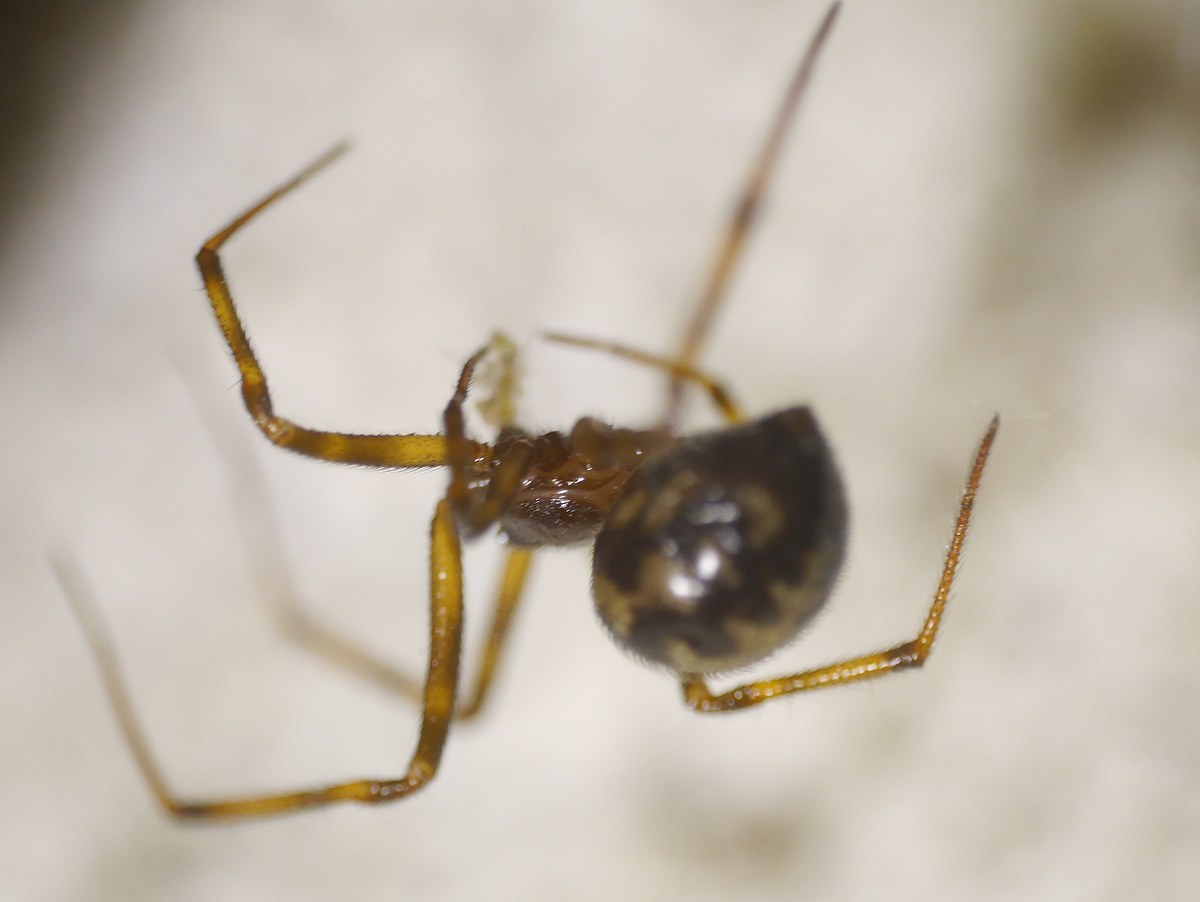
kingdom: Animalia
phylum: Arthropoda
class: Arachnida
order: Araneae
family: Theridiidae
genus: Steatoda
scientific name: Steatoda triangulosa
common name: Triangulate bud spider
